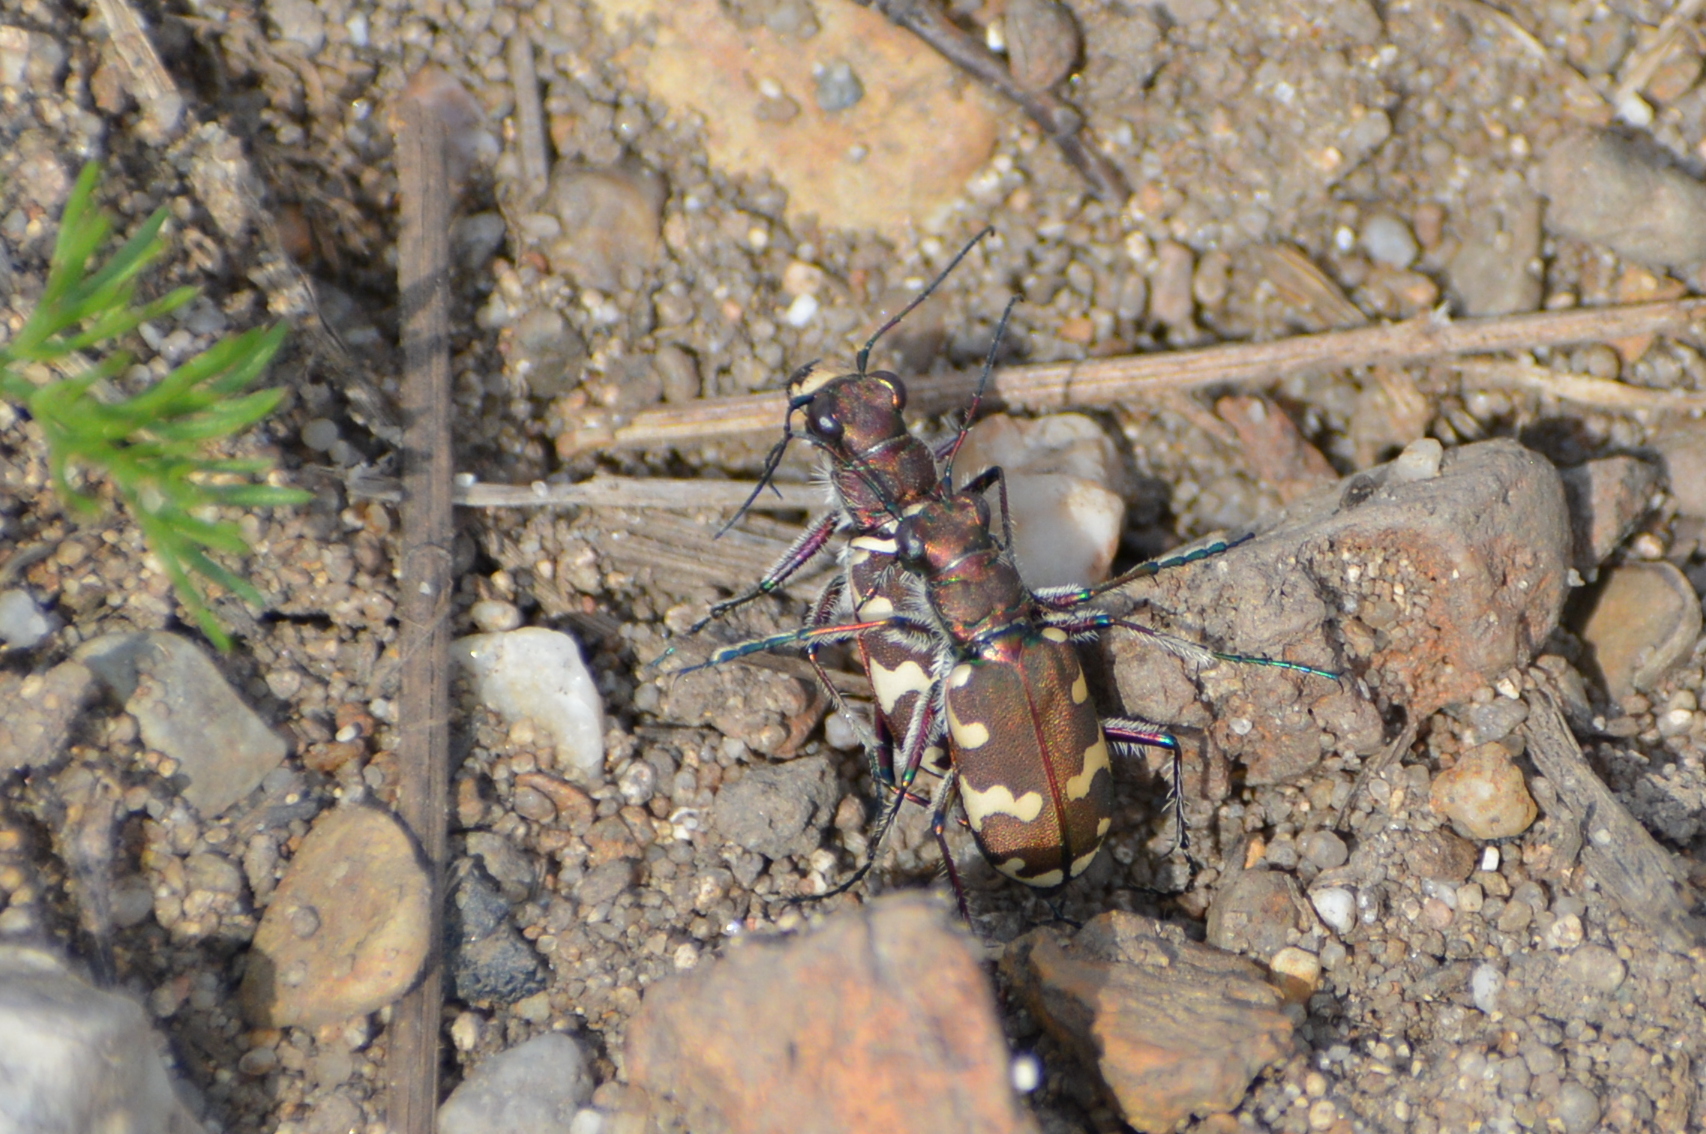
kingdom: Animalia
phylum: Arthropoda
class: Insecta
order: Coleoptera
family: Carabidae
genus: Cicindela
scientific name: Cicindela hybrida
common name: Northern dune tiger beetle
